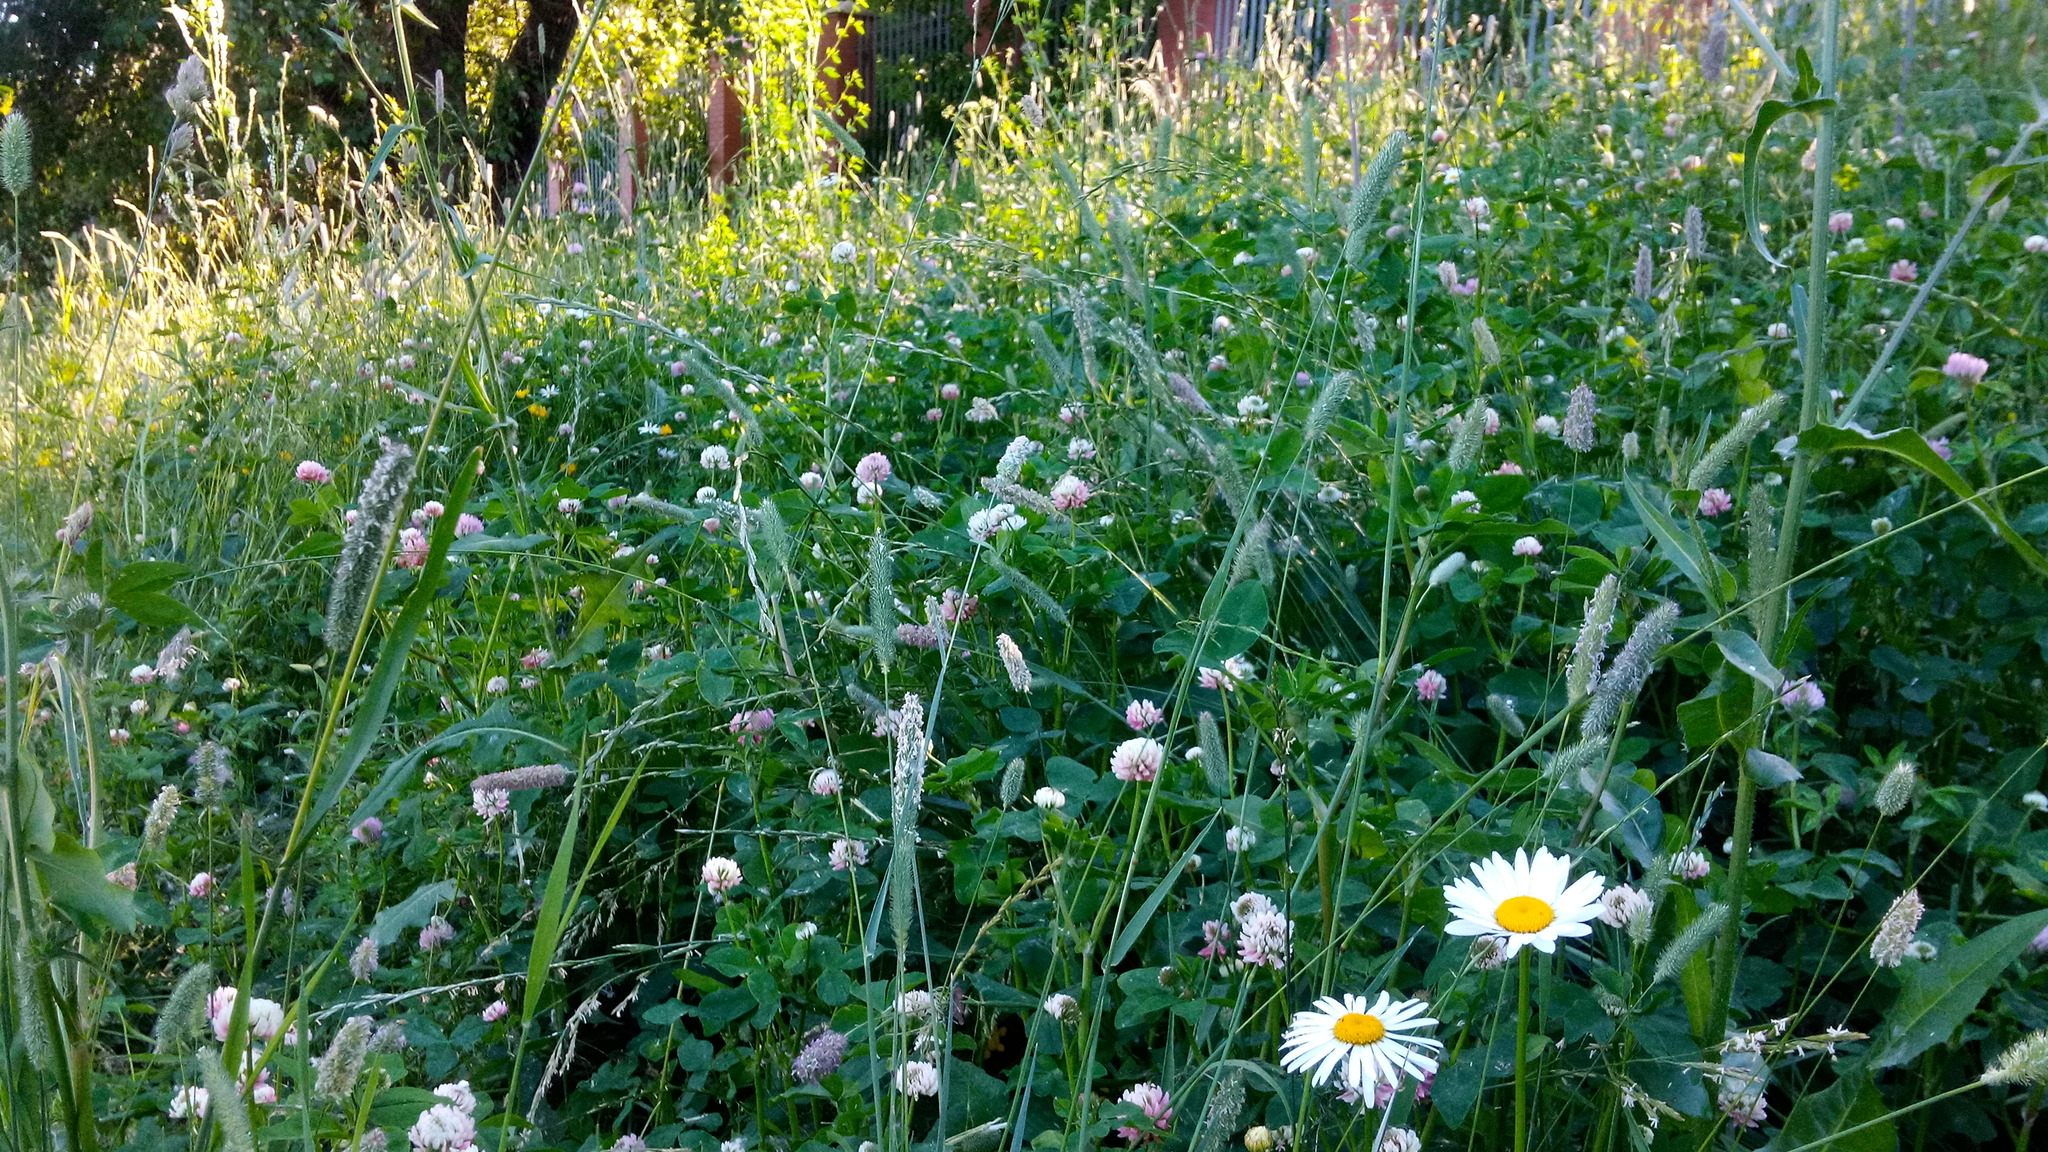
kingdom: Plantae
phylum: Tracheophyta
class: Magnoliopsida
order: Asterales
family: Asteraceae
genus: Leucanthemum
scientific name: Leucanthemum vulgare
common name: Oxeye daisy
